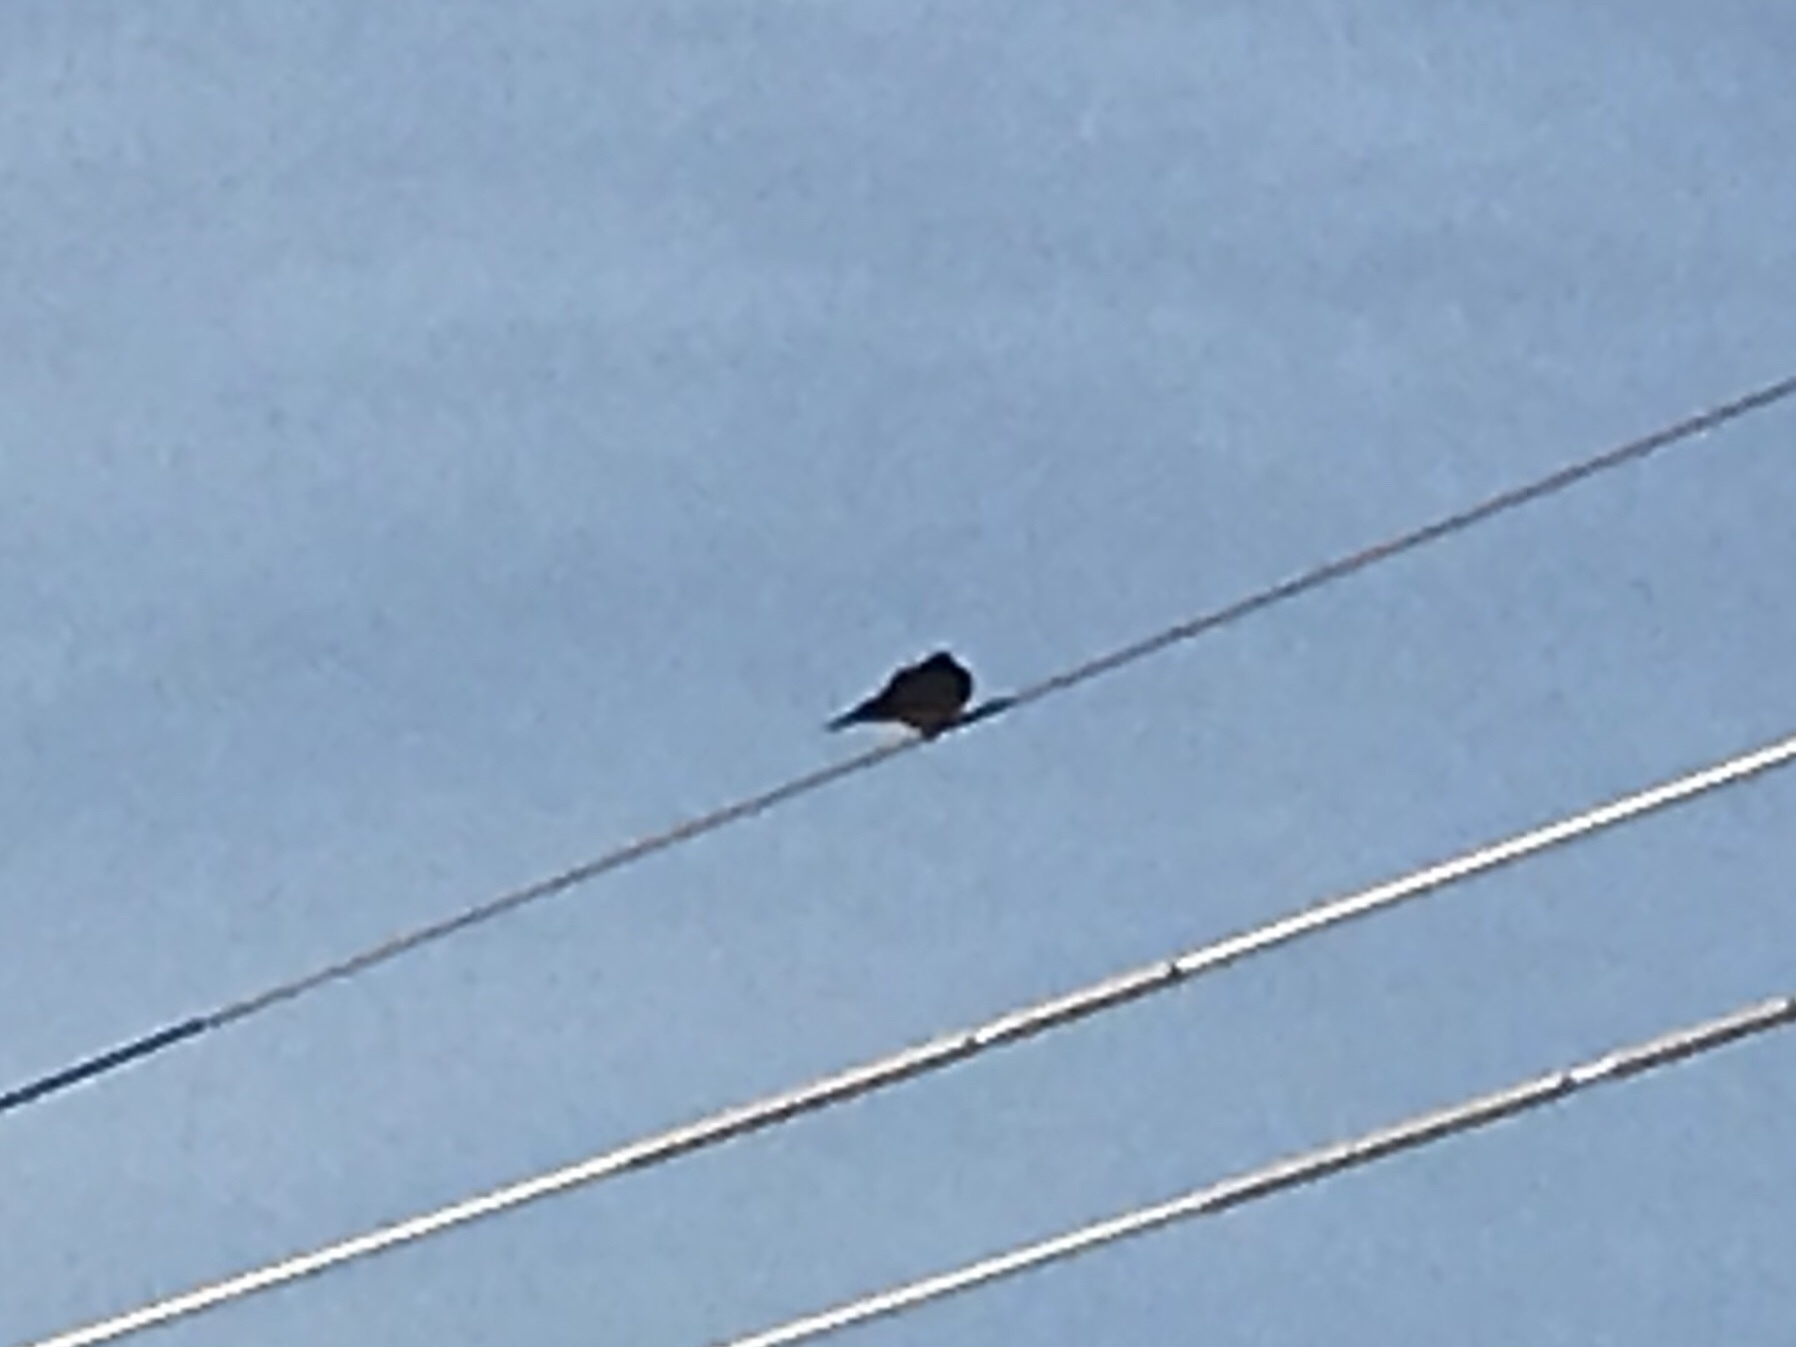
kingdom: Animalia
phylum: Chordata
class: Aves
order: Columbiformes
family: Columbidae
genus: Zenaida
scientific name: Zenaida macroura
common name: Mourning dove
